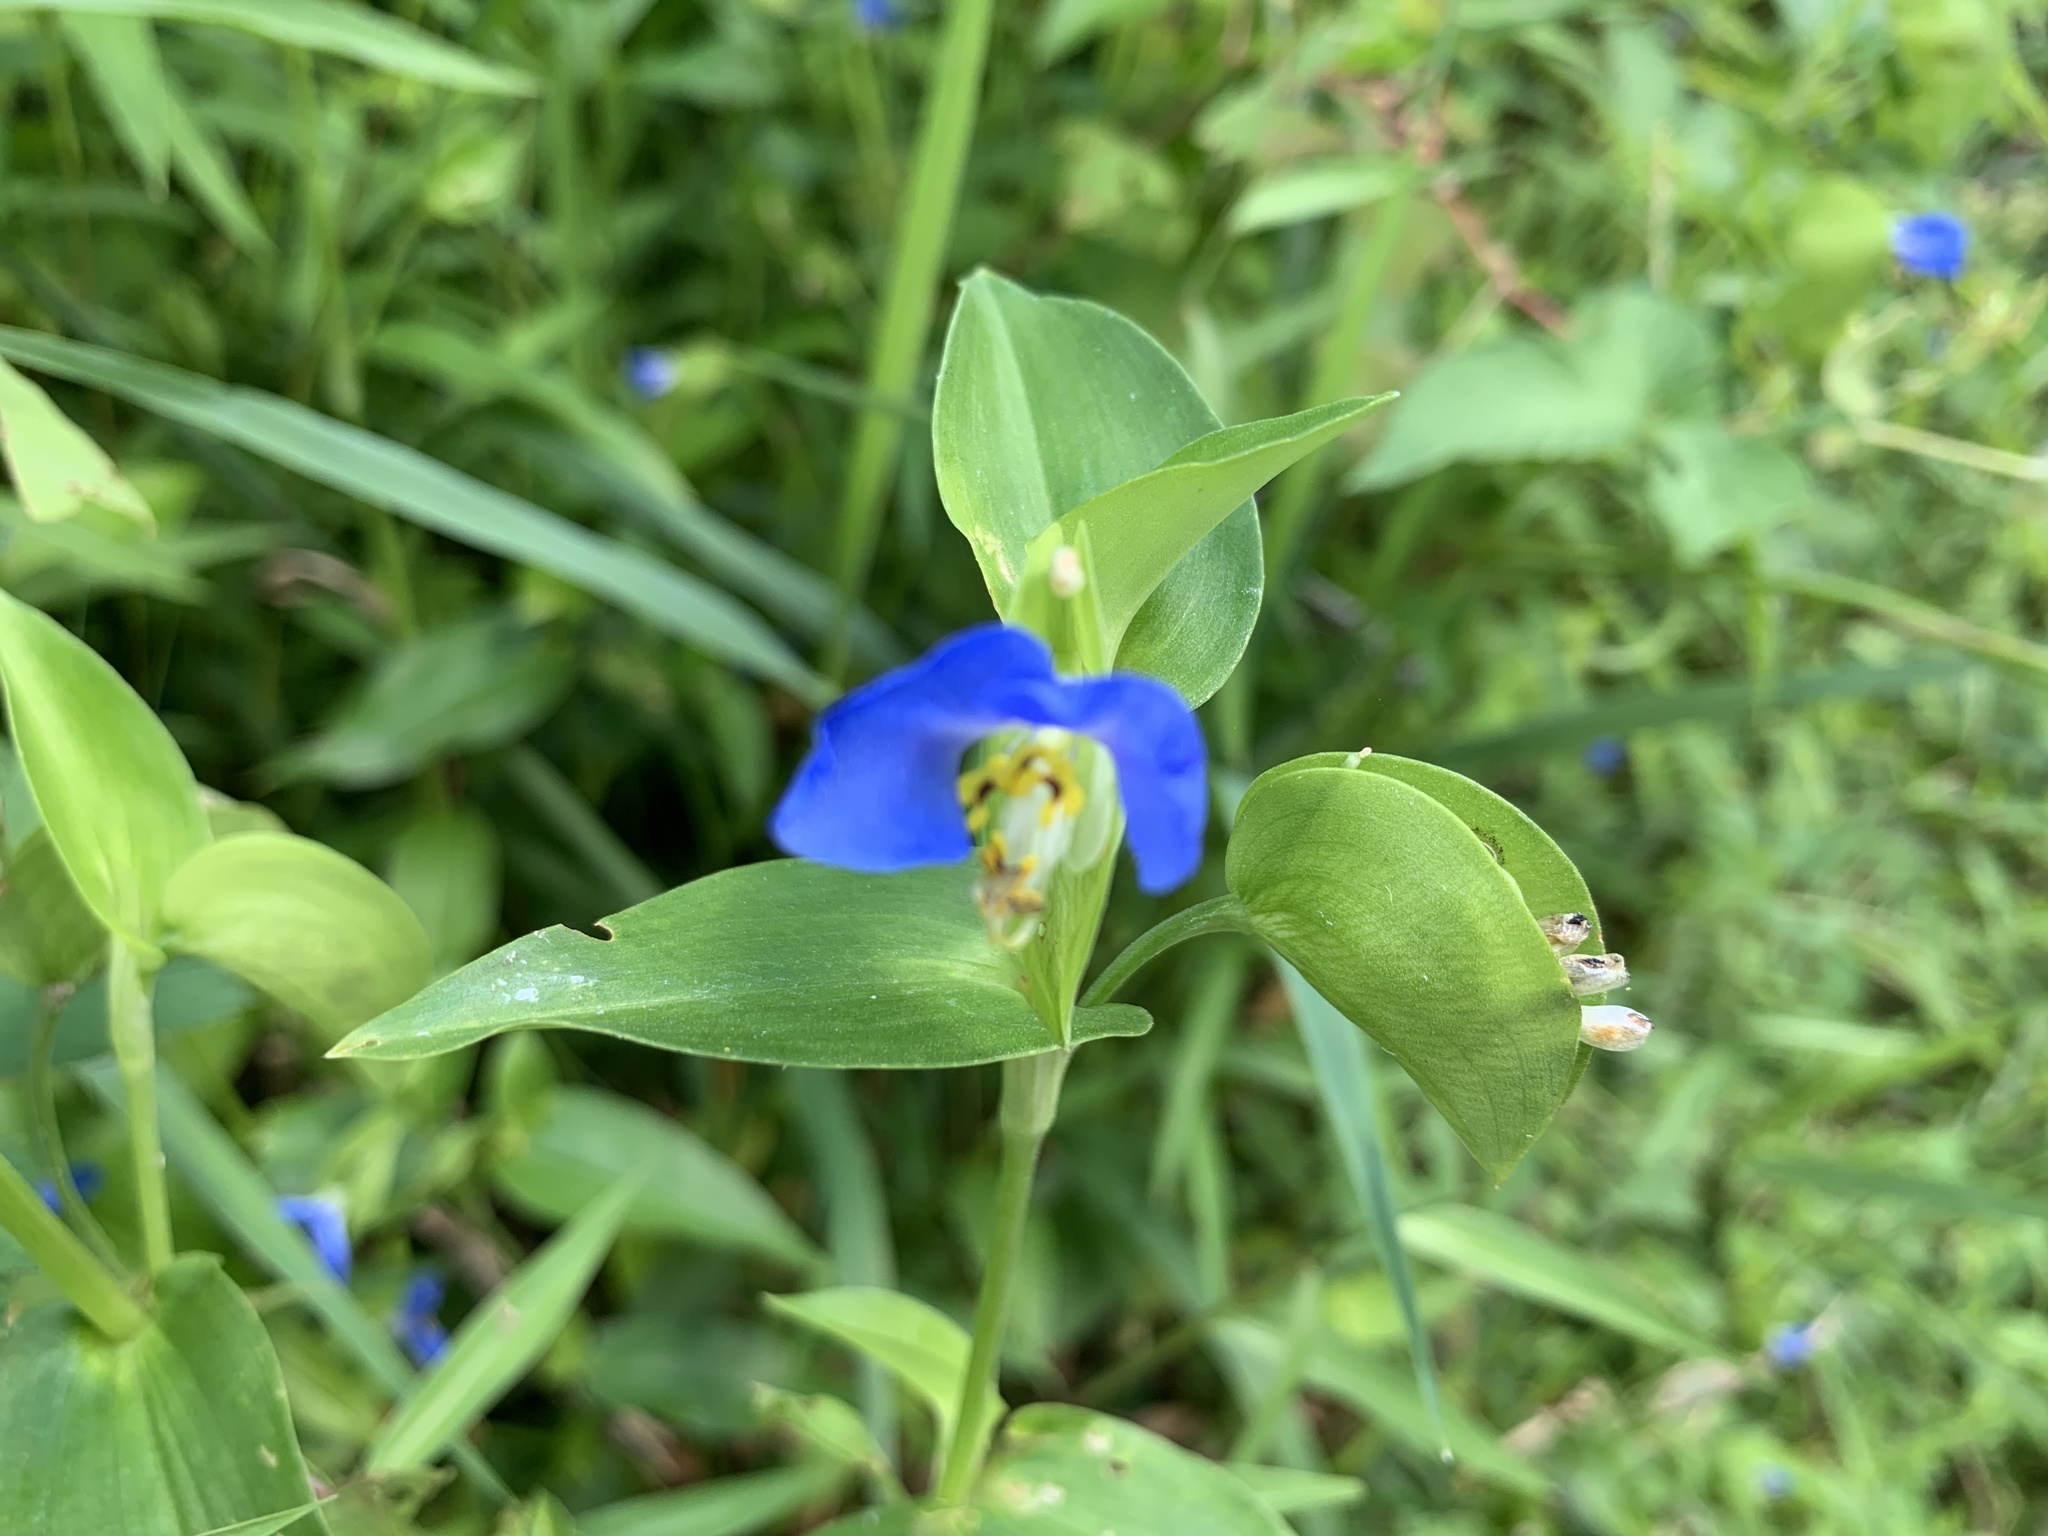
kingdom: Plantae
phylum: Tracheophyta
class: Liliopsida
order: Commelinales
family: Commelinaceae
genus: Commelina
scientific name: Commelina communis
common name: Asiatic dayflower
